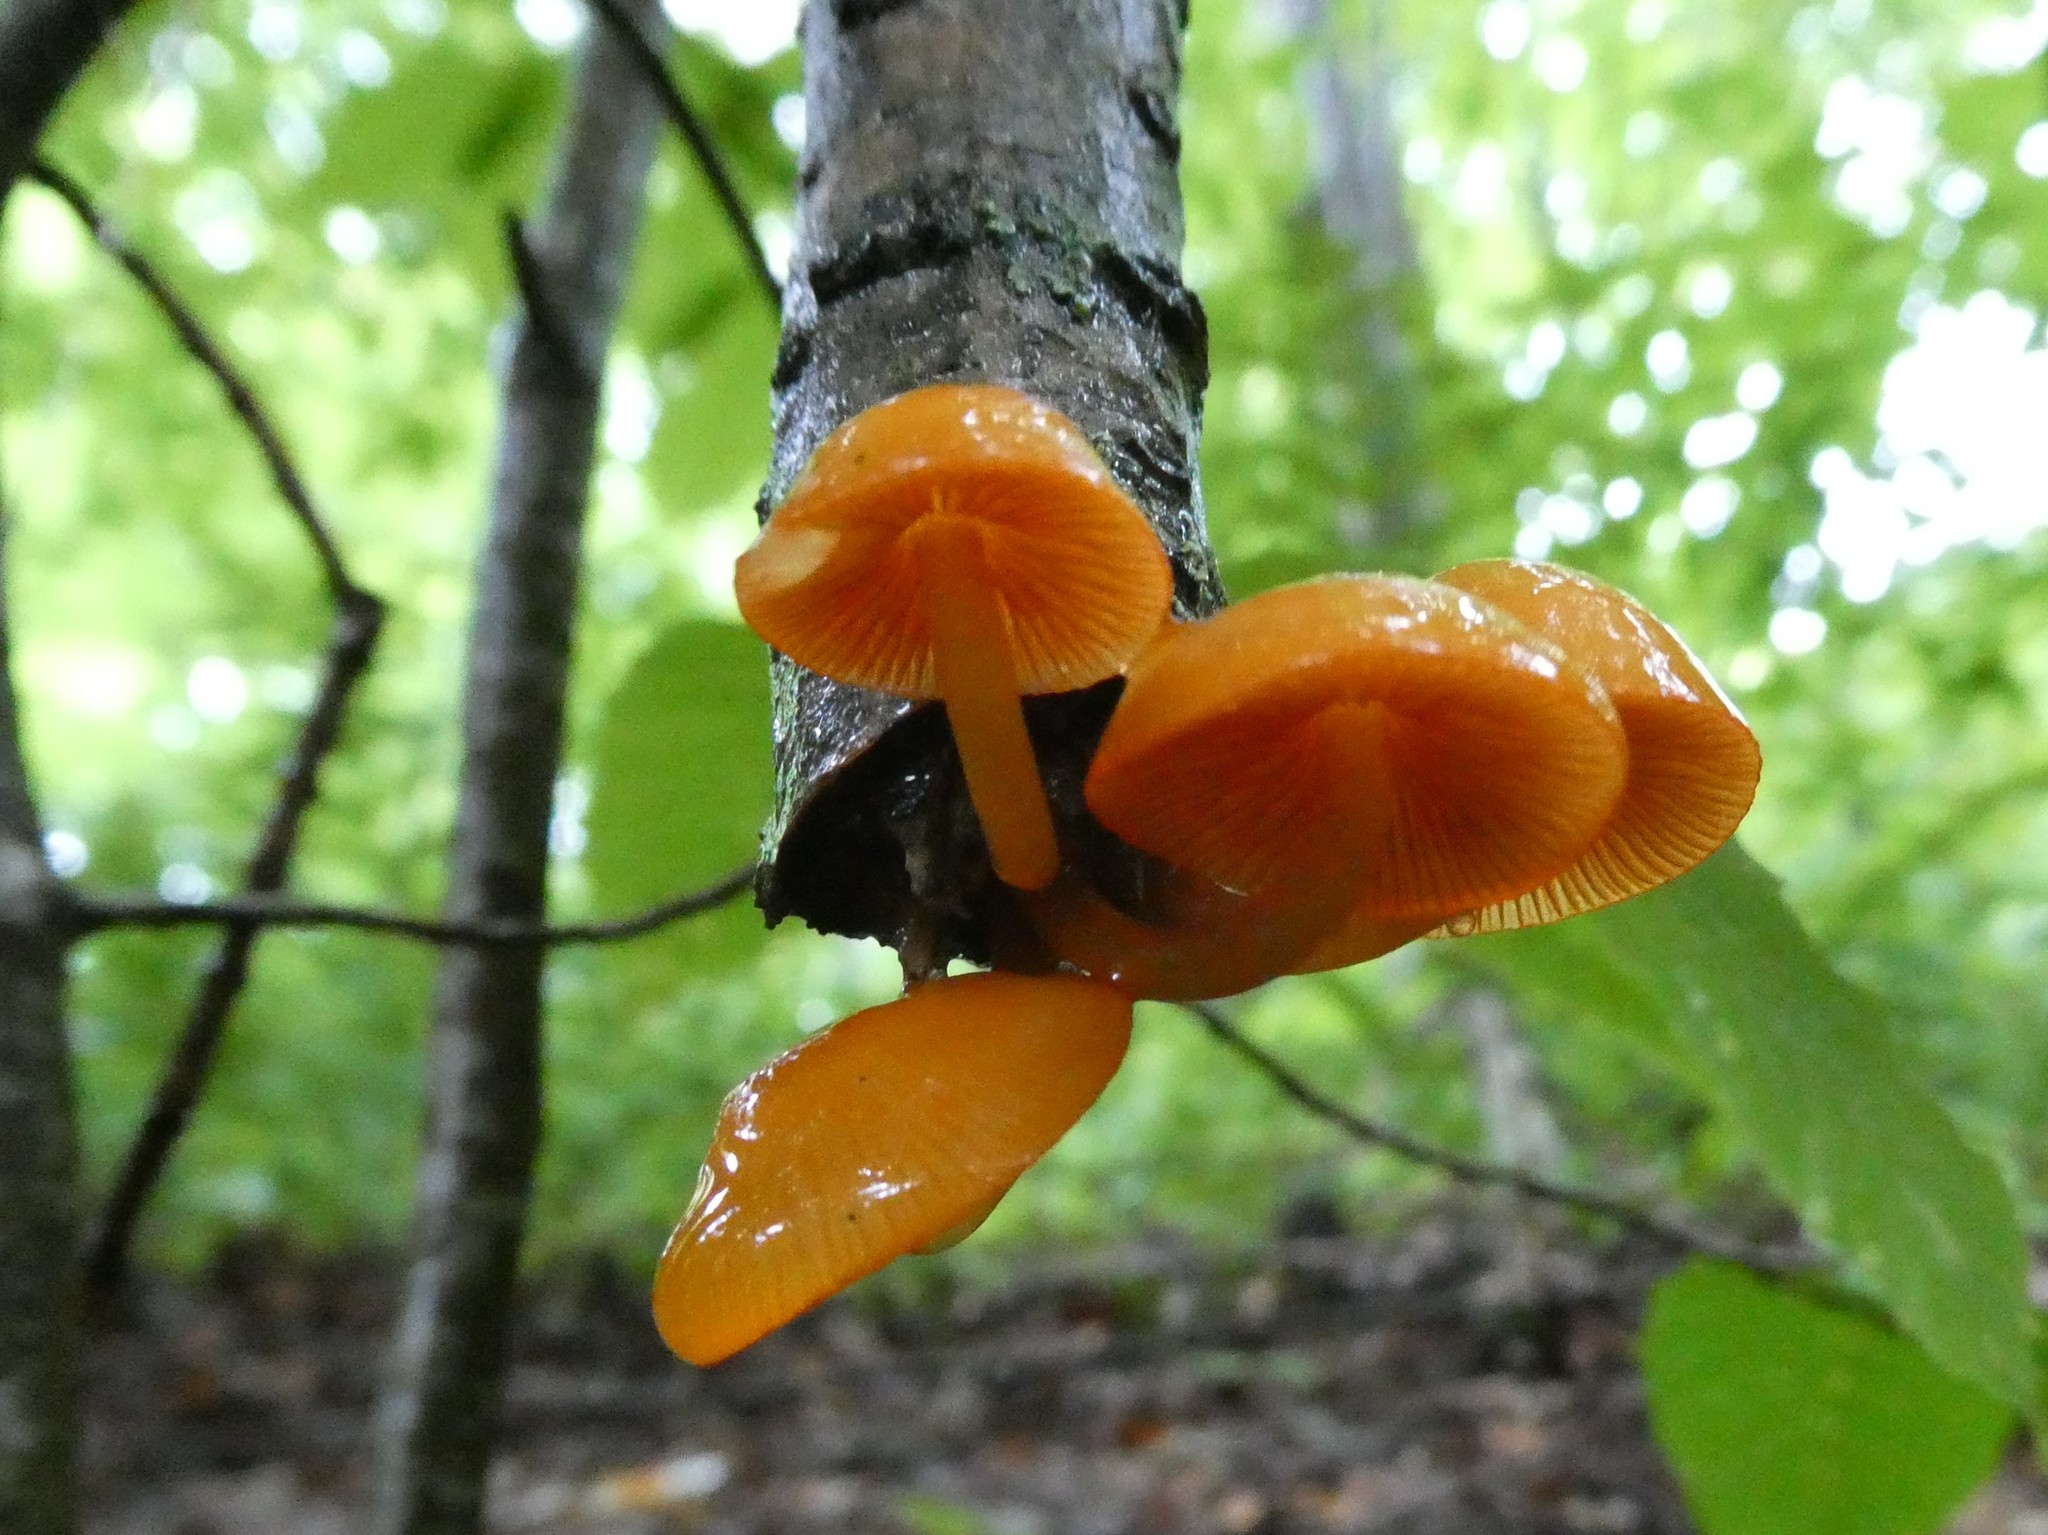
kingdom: Fungi
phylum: Basidiomycota
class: Agaricomycetes
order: Agaricales
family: Mycenaceae
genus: Mycena
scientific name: Mycena leaiana
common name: Orange mycena
